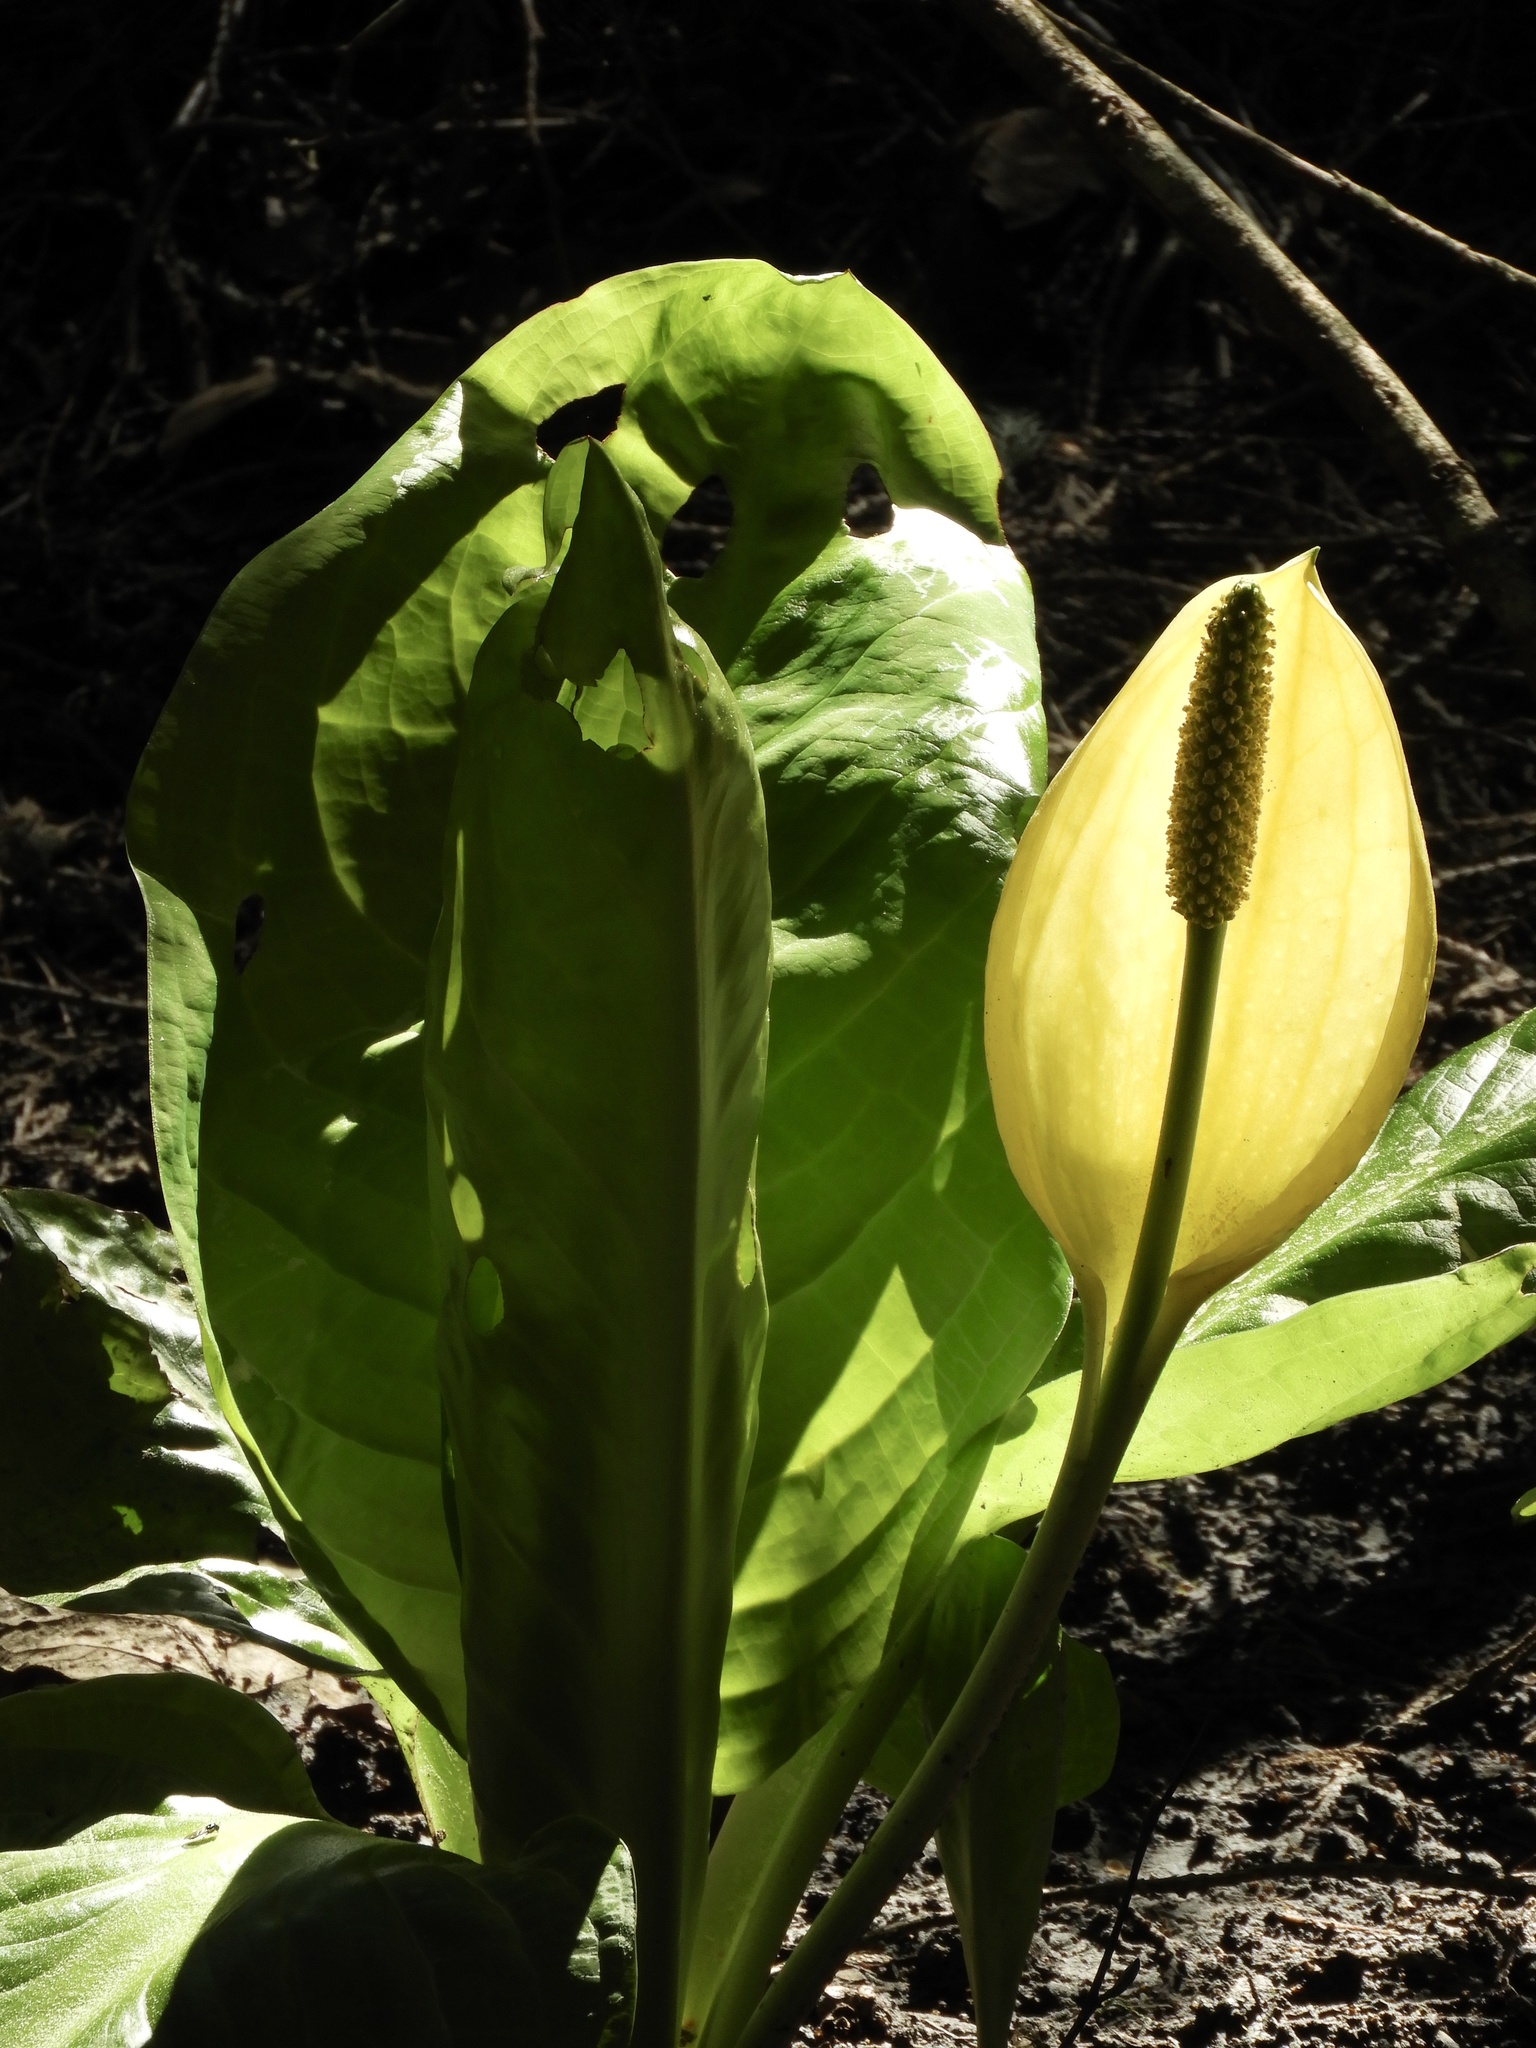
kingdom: Plantae
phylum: Tracheophyta
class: Liliopsida
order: Alismatales
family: Araceae
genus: Lysichiton
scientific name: Lysichiton americanus
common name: American skunk cabbage
